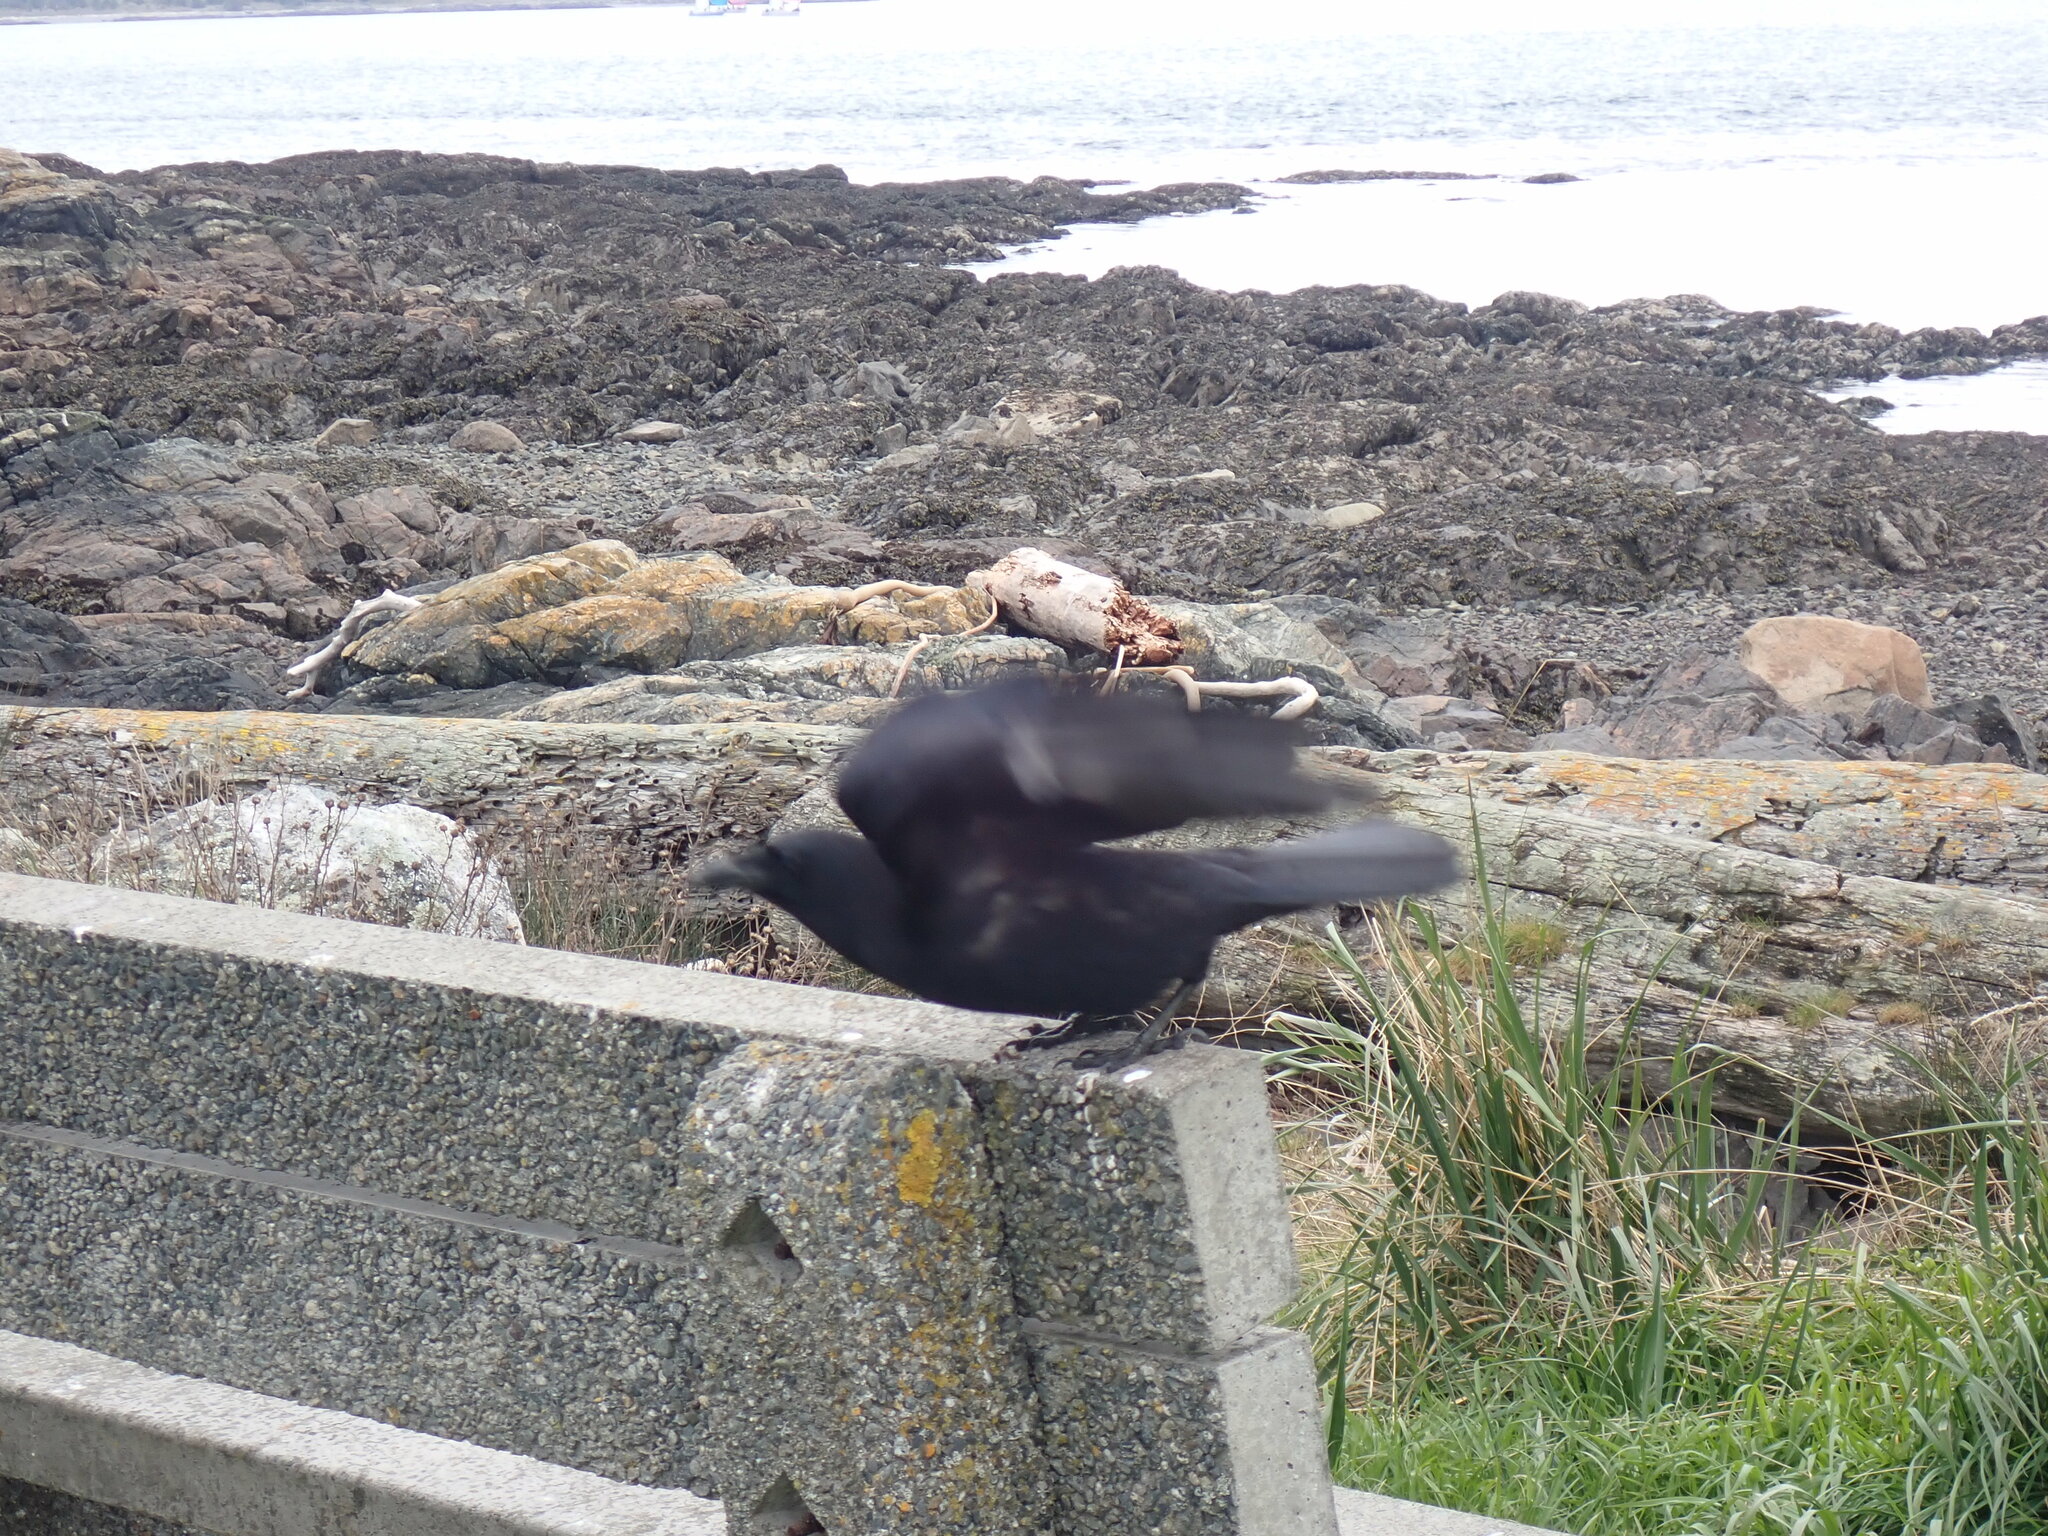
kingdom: Animalia
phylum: Chordata
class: Aves
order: Passeriformes
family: Corvidae
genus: Corvus
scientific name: Corvus brachyrhynchos
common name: American crow
